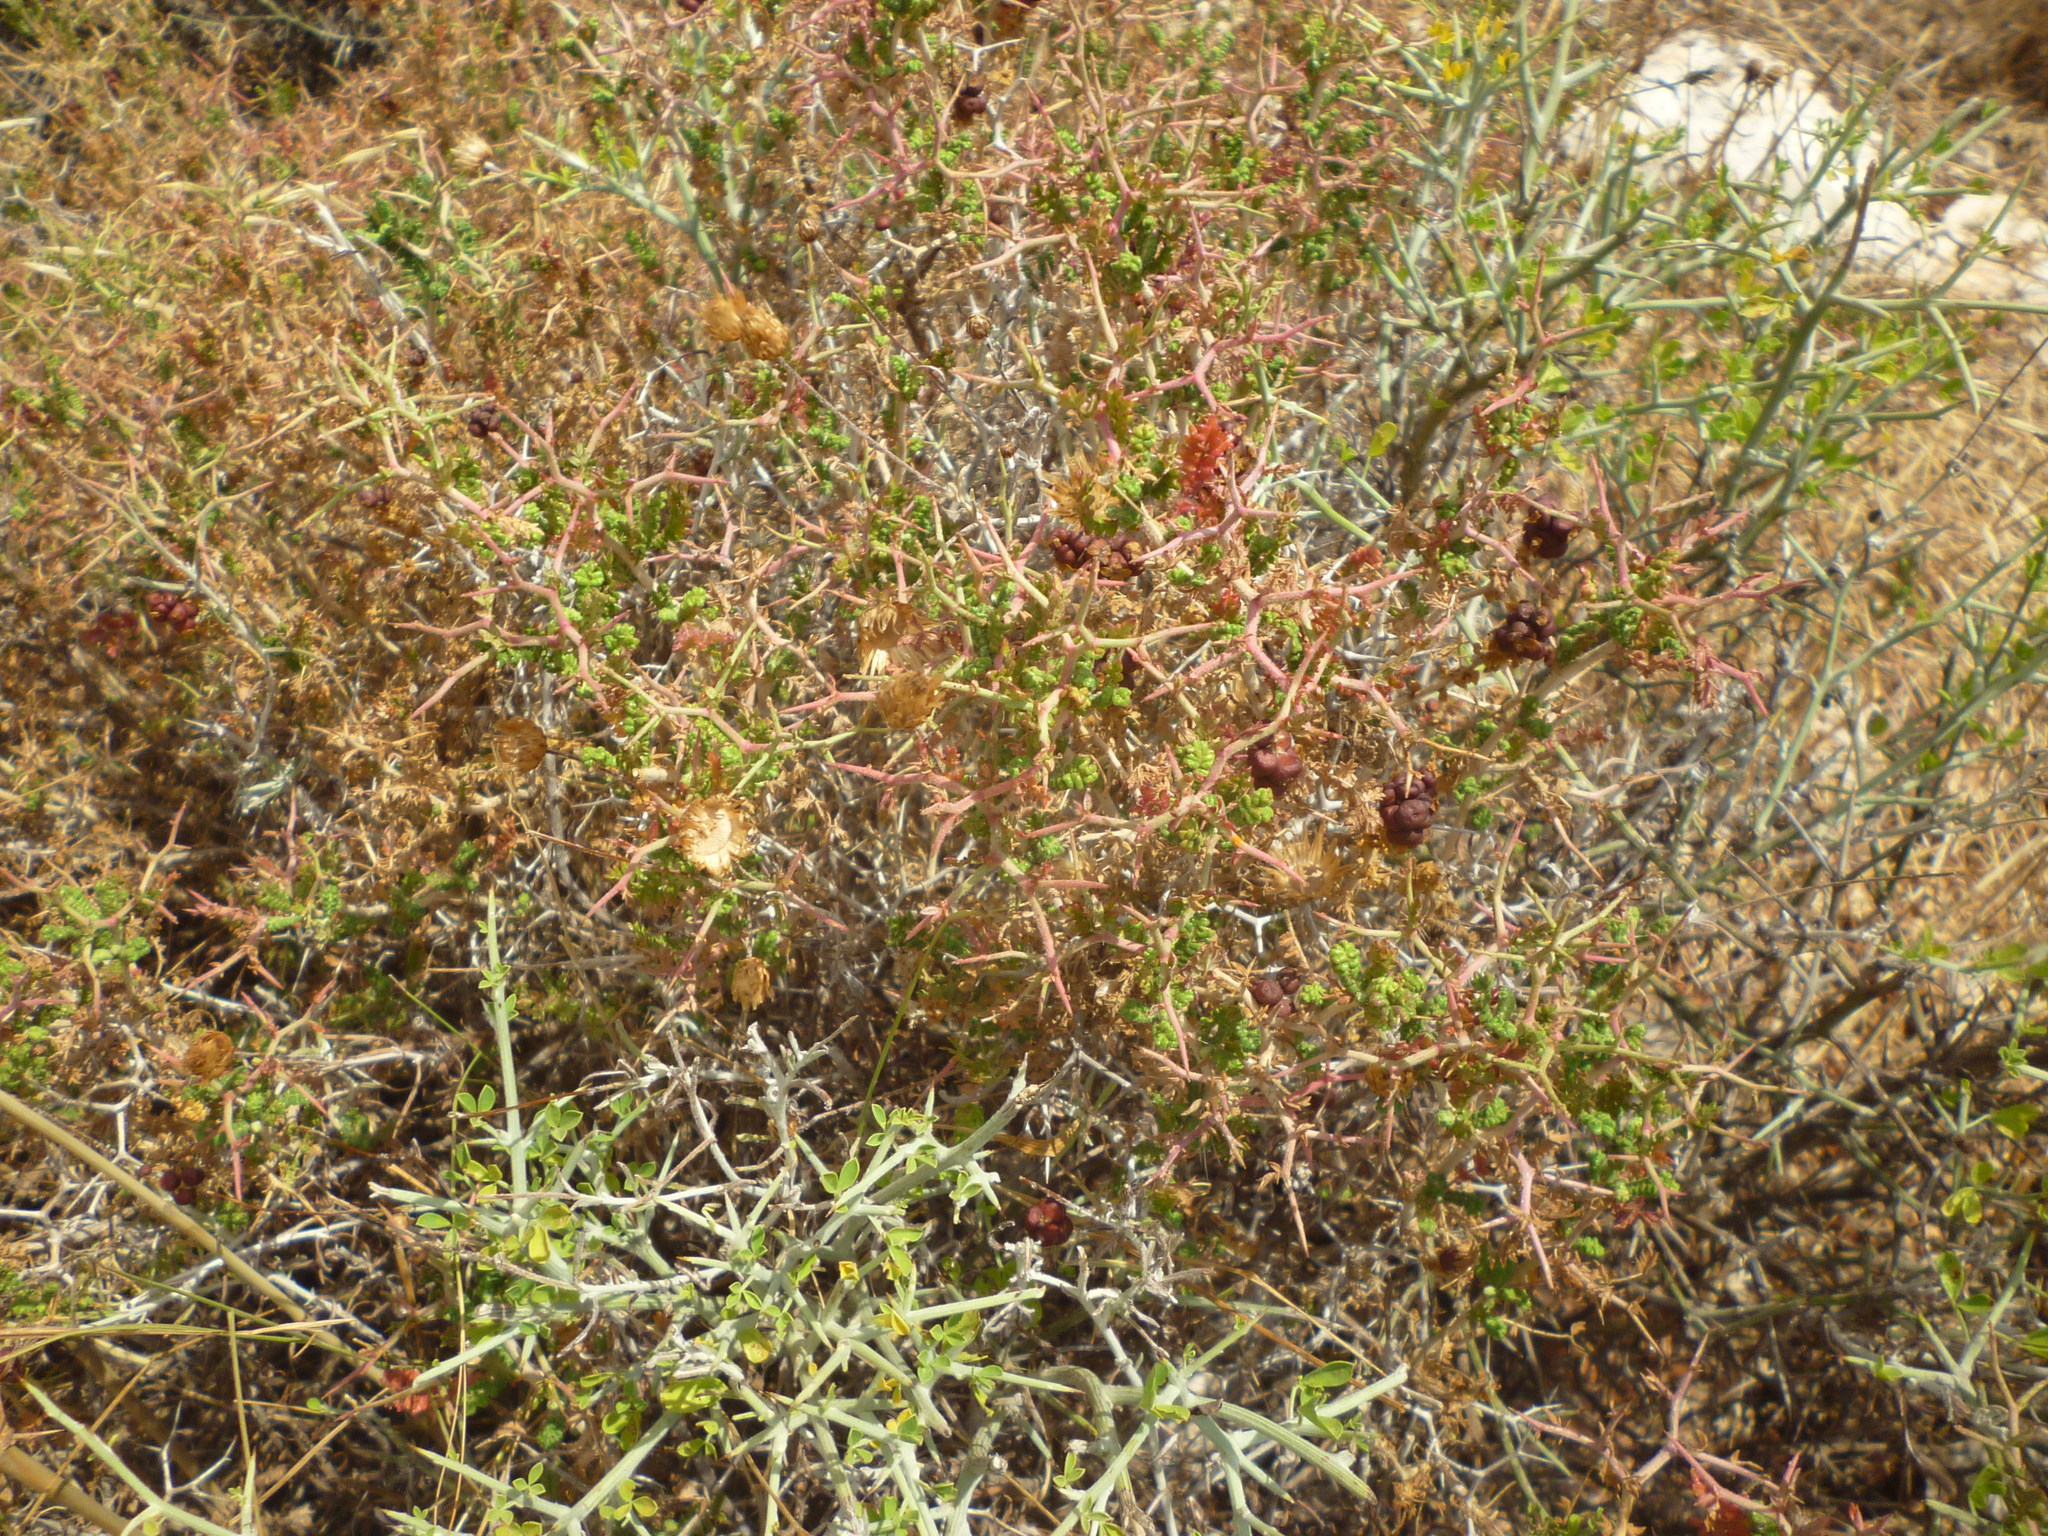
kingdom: Plantae
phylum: Tracheophyta
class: Magnoliopsida
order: Rosales
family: Rosaceae
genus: Sarcopoterium
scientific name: Sarcopoterium spinosum
